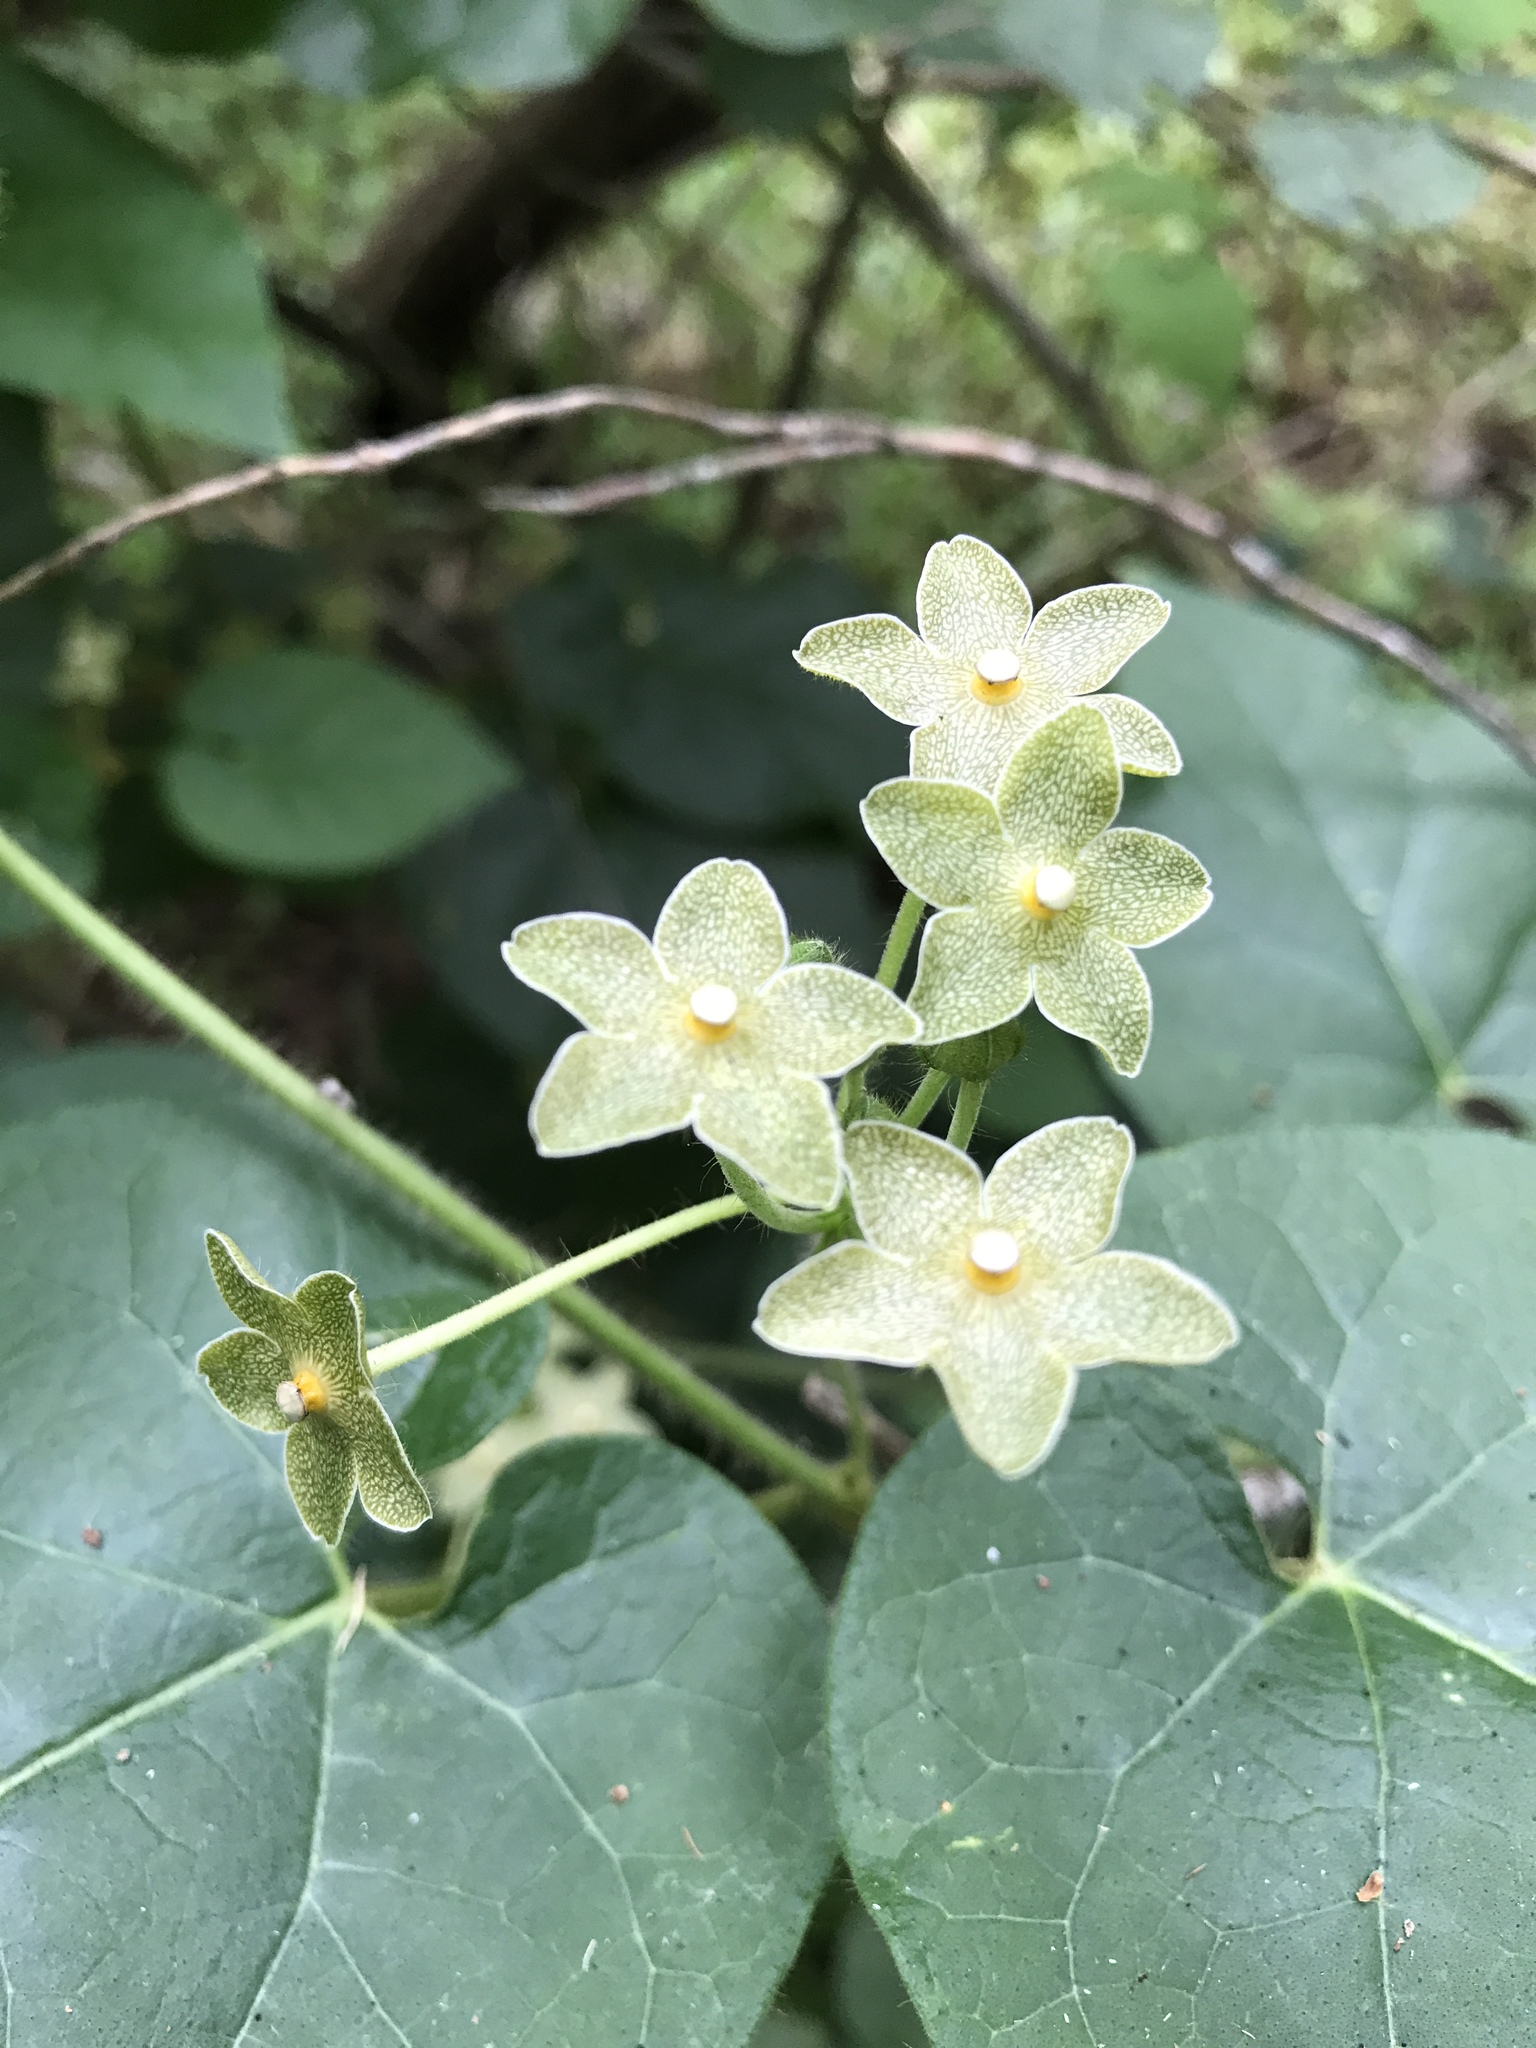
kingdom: Plantae
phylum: Tracheophyta
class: Magnoliopsida
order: Gentianales
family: Apocynaceae
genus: Dictyanthus
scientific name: Dictyanthus reticulatus
